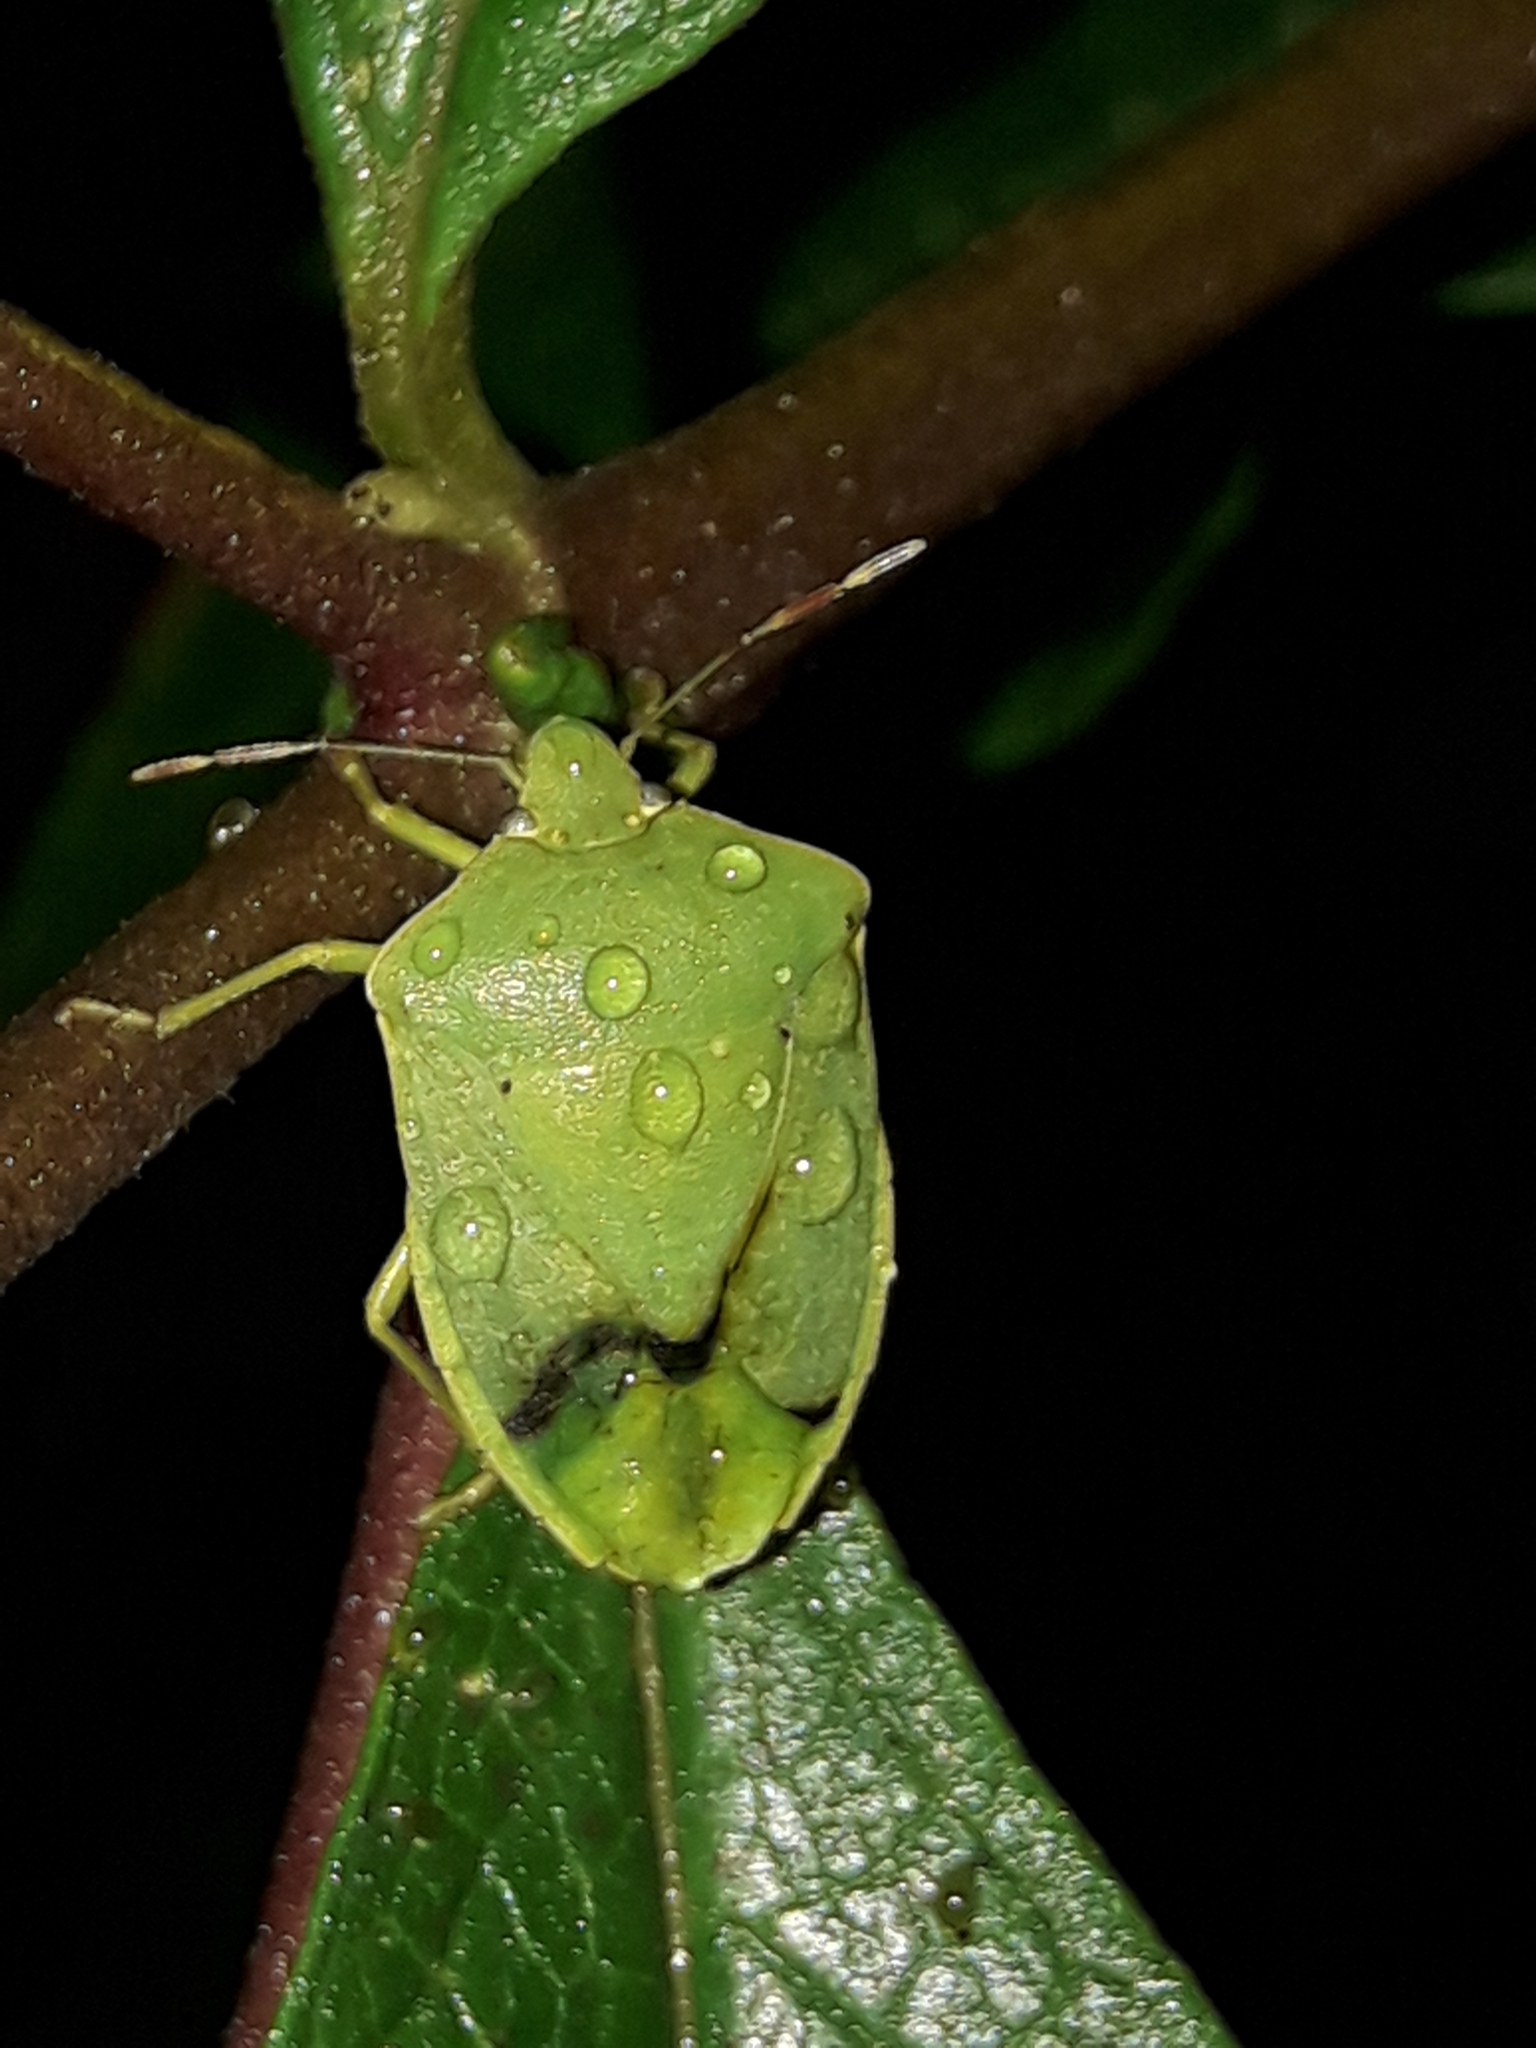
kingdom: Animalia
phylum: Arthropoda
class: Insecta
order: Hemiptera
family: Pentatomidae
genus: Nezara
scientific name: Nezara viridula
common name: Southern green stink bug
